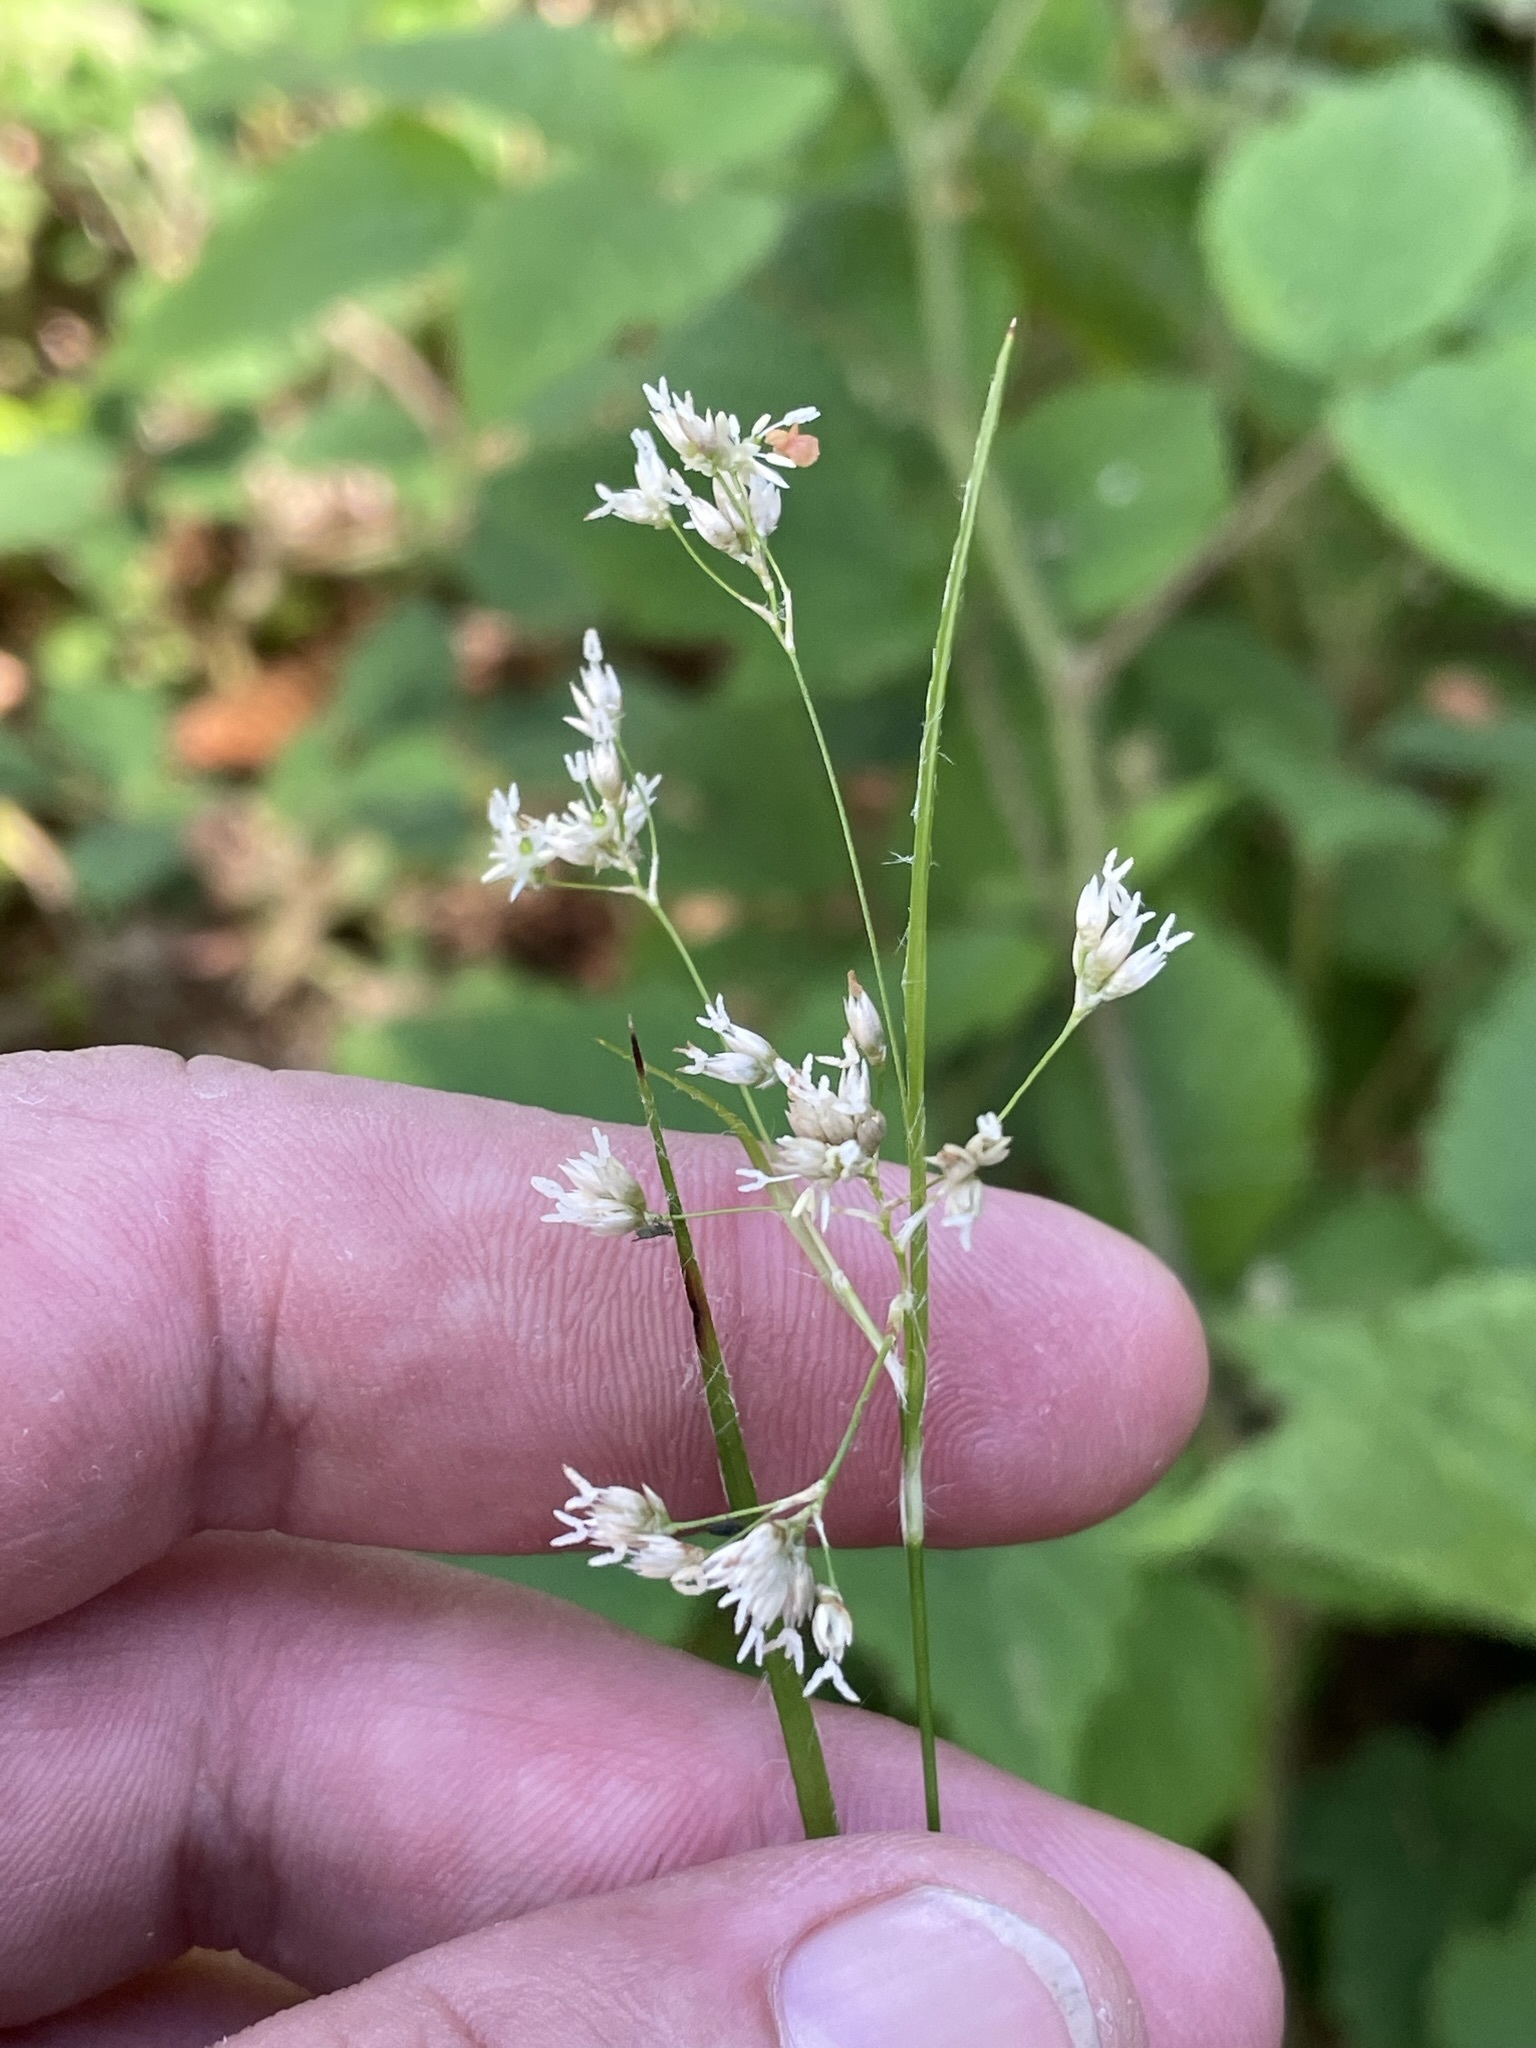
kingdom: Plantae
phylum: Tracheophyta
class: Liliopsida
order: Poales
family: Juncaceae
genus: Luzula
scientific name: Luzula luzuloides
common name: White wood-rush
